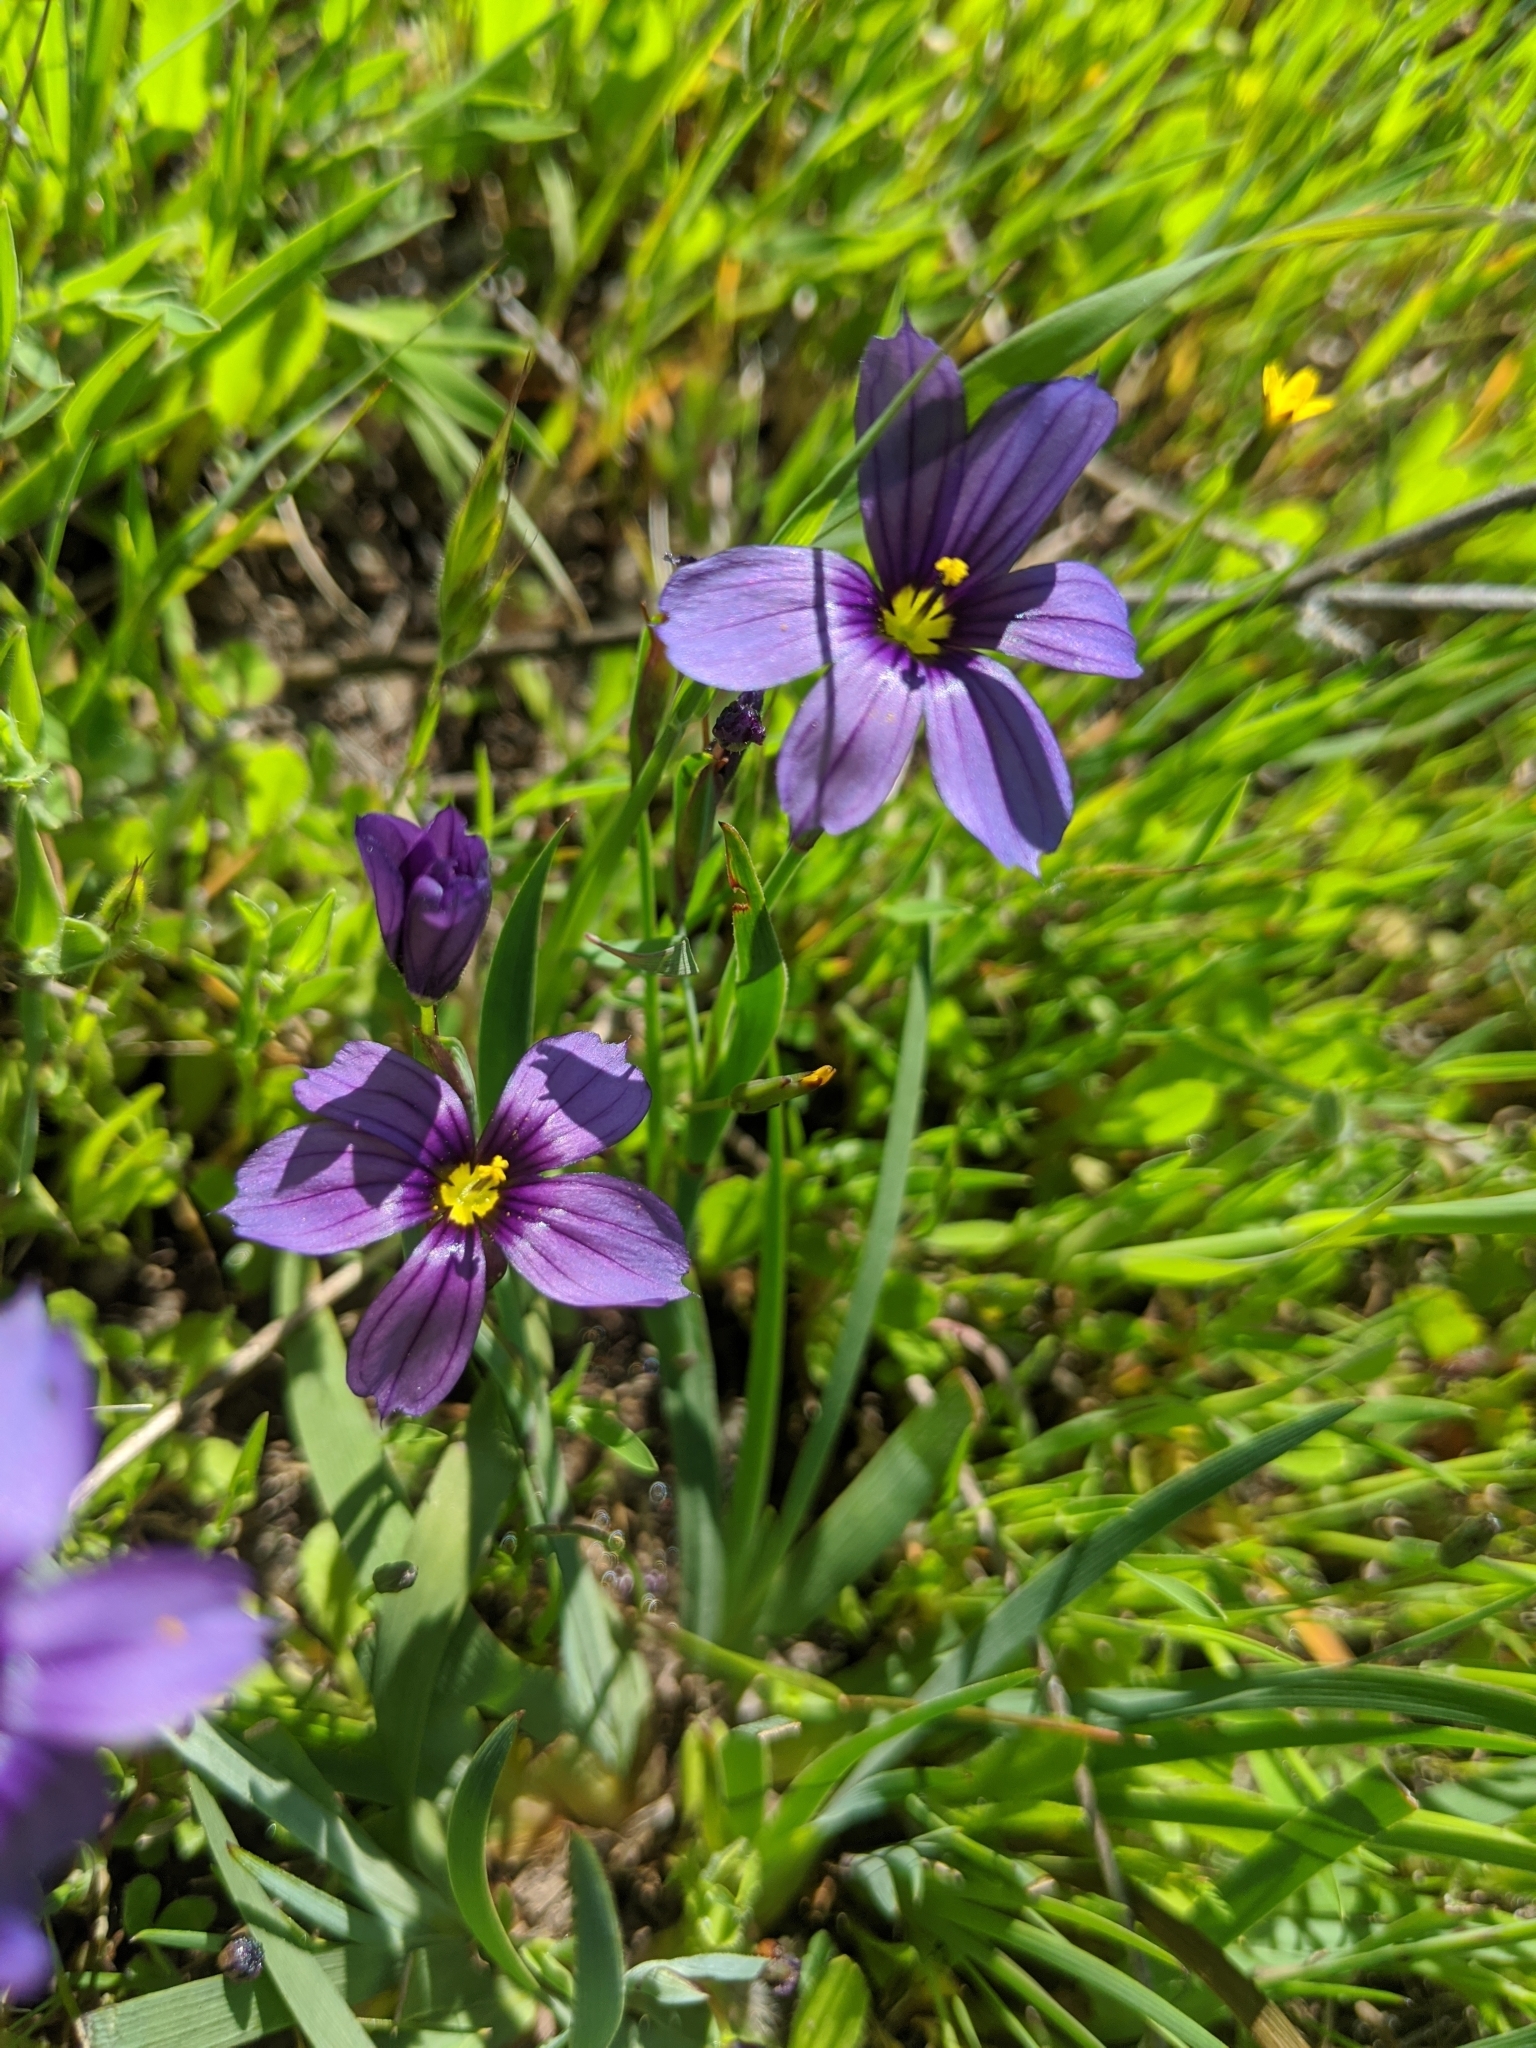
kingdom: Plantae
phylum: Tracheophyta
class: Liliopsida
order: Asparagales
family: Iridaceae
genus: Sisyrinchium
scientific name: Sisyrinchium bellum
